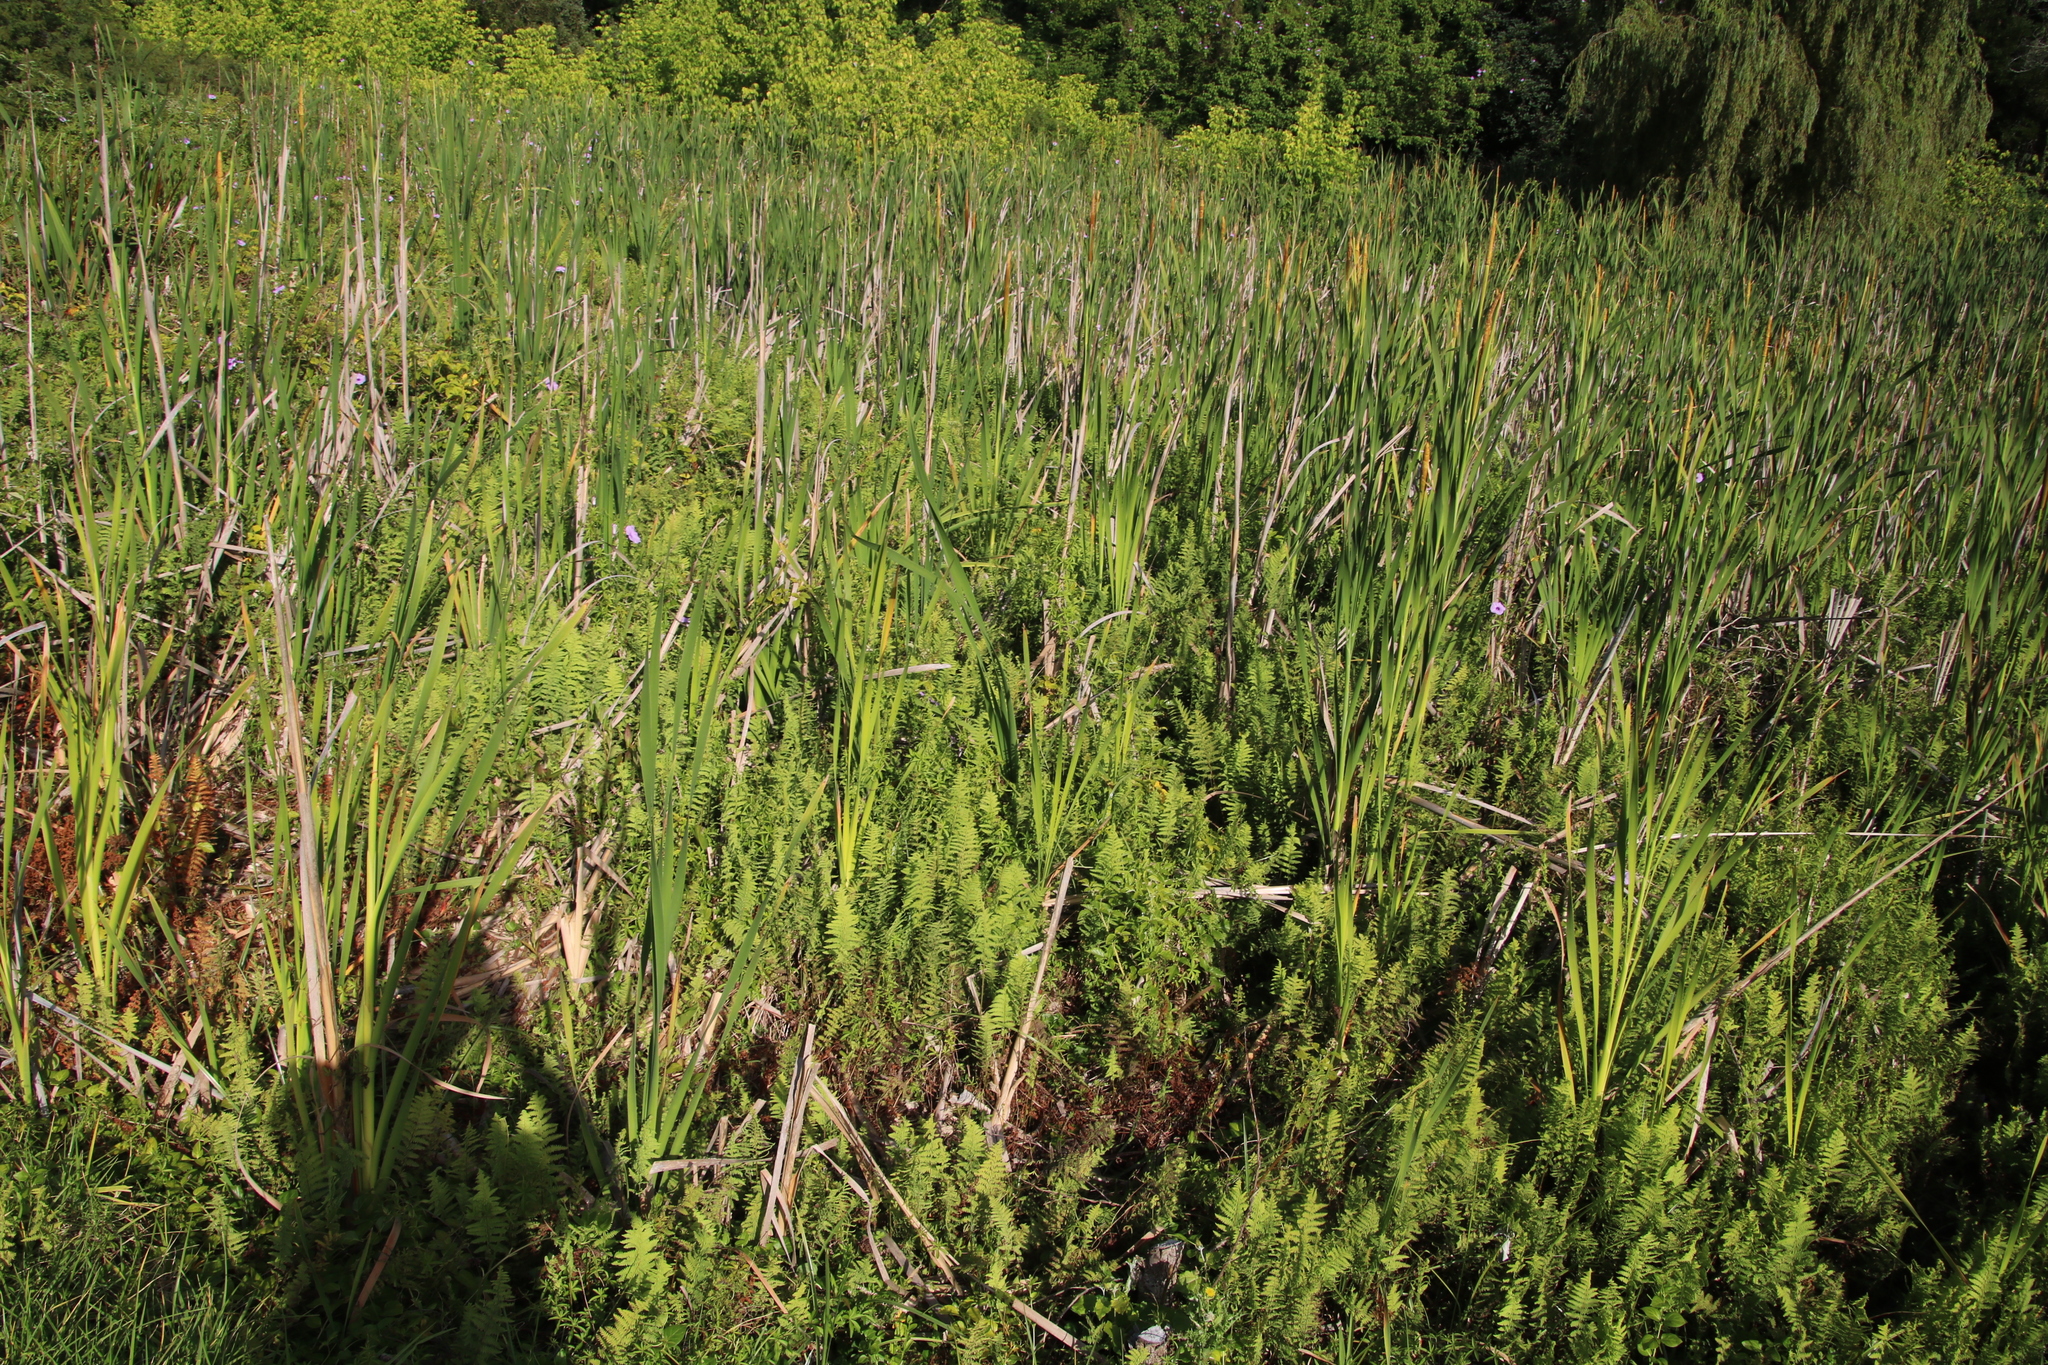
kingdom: Plantae
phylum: Tracheophyta
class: Polypodiopsida
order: Polypodiales
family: Thelypteridaceae
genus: Thelypteris
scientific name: Thelypteris confluens
